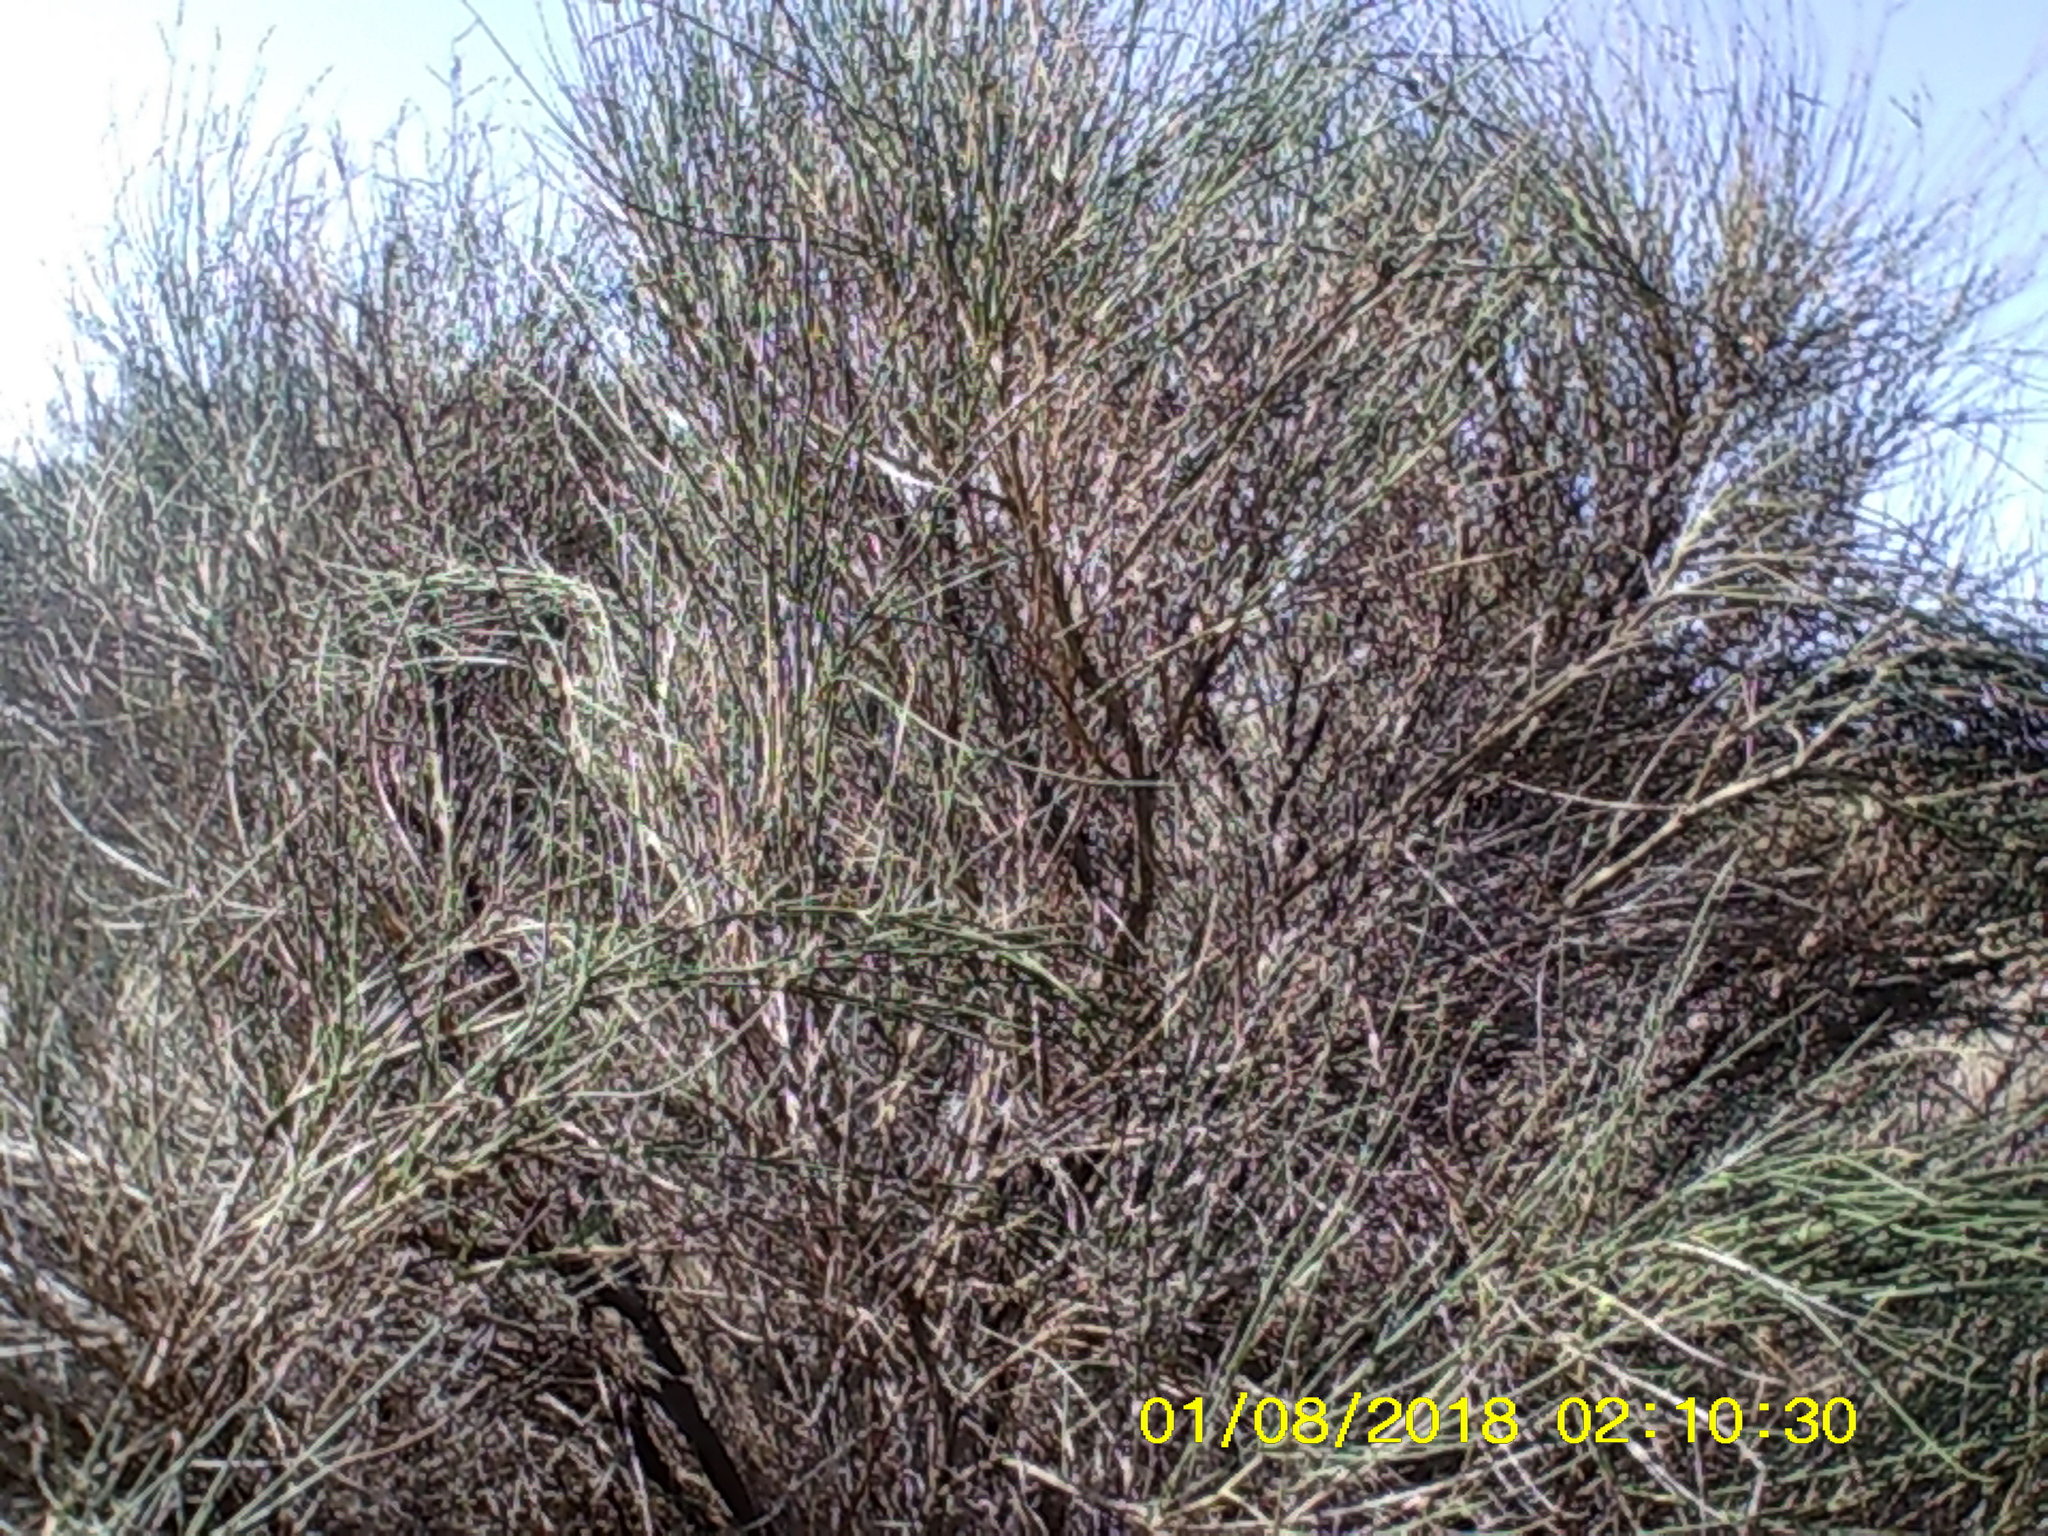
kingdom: Plantae
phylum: Tracheophyta
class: Magnoliopsida
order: Fabales
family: Fabaceae
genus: Spartium
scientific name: Spartium junceum
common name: Spanish broom
